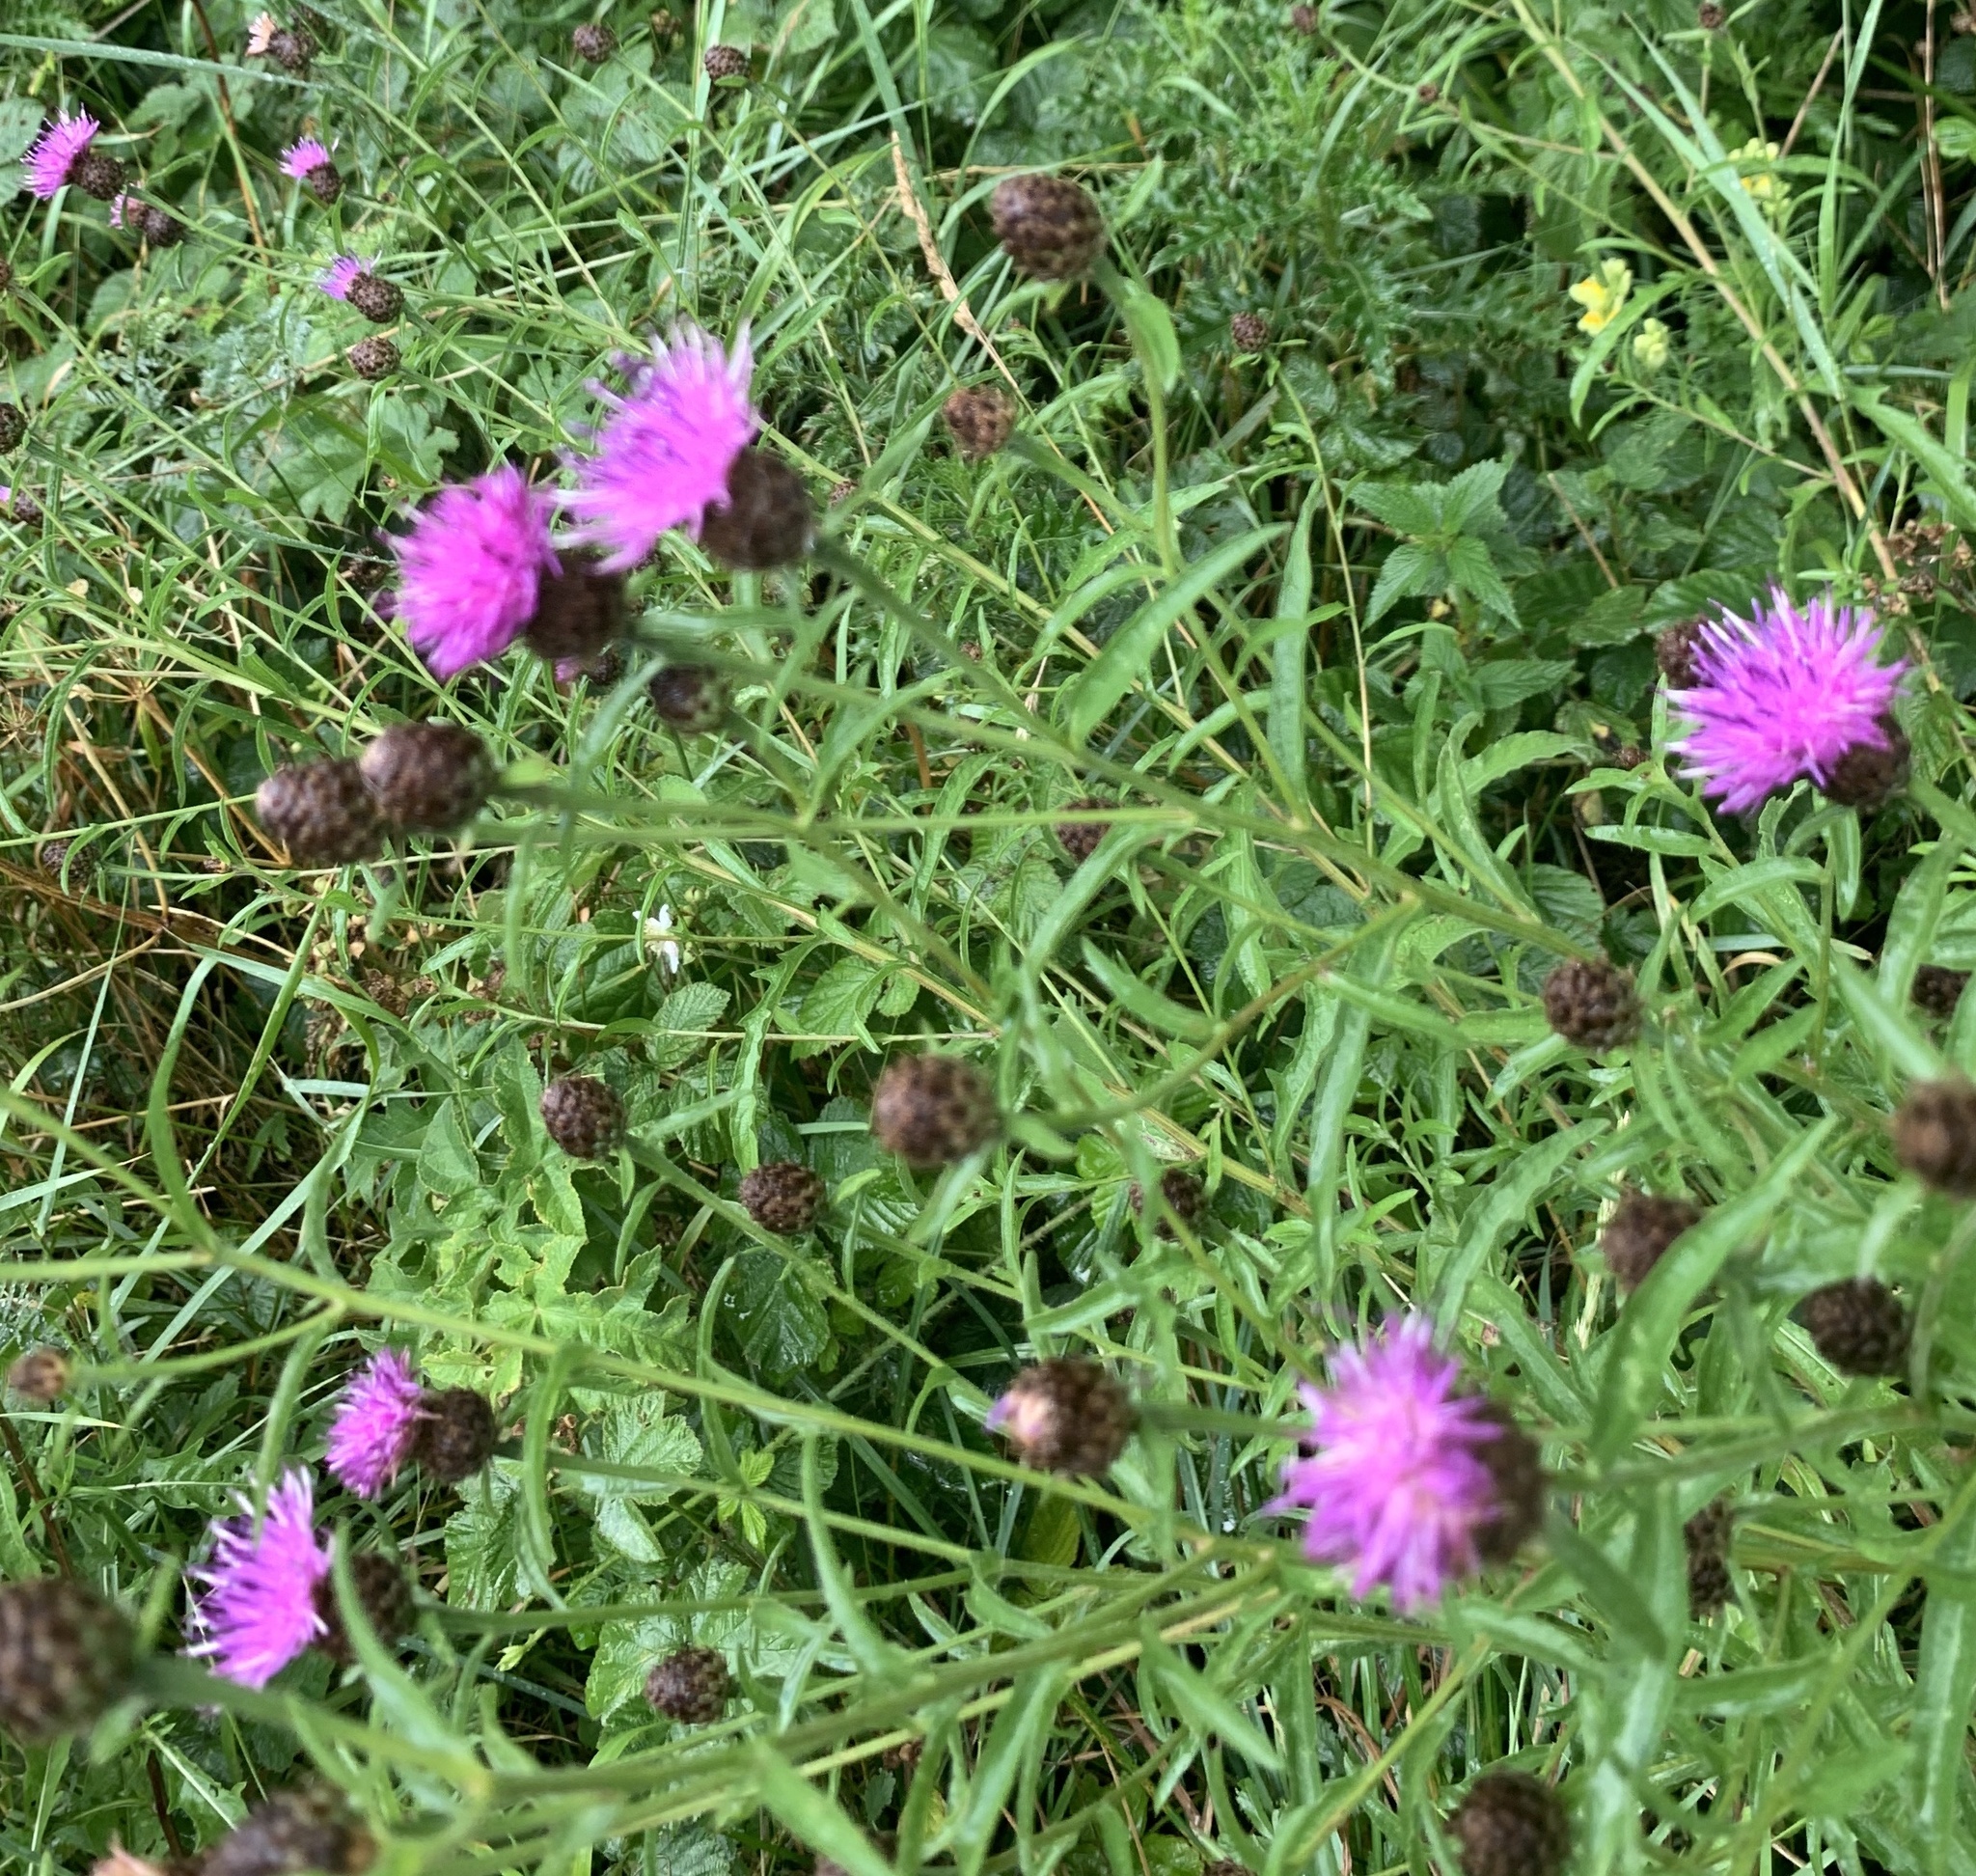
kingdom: Plantae
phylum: Tracheophyta
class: Magnoliopsida
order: Asterales
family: Asteraceae
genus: Centaurea
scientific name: Centaurea nigra
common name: Lesser knapweed
